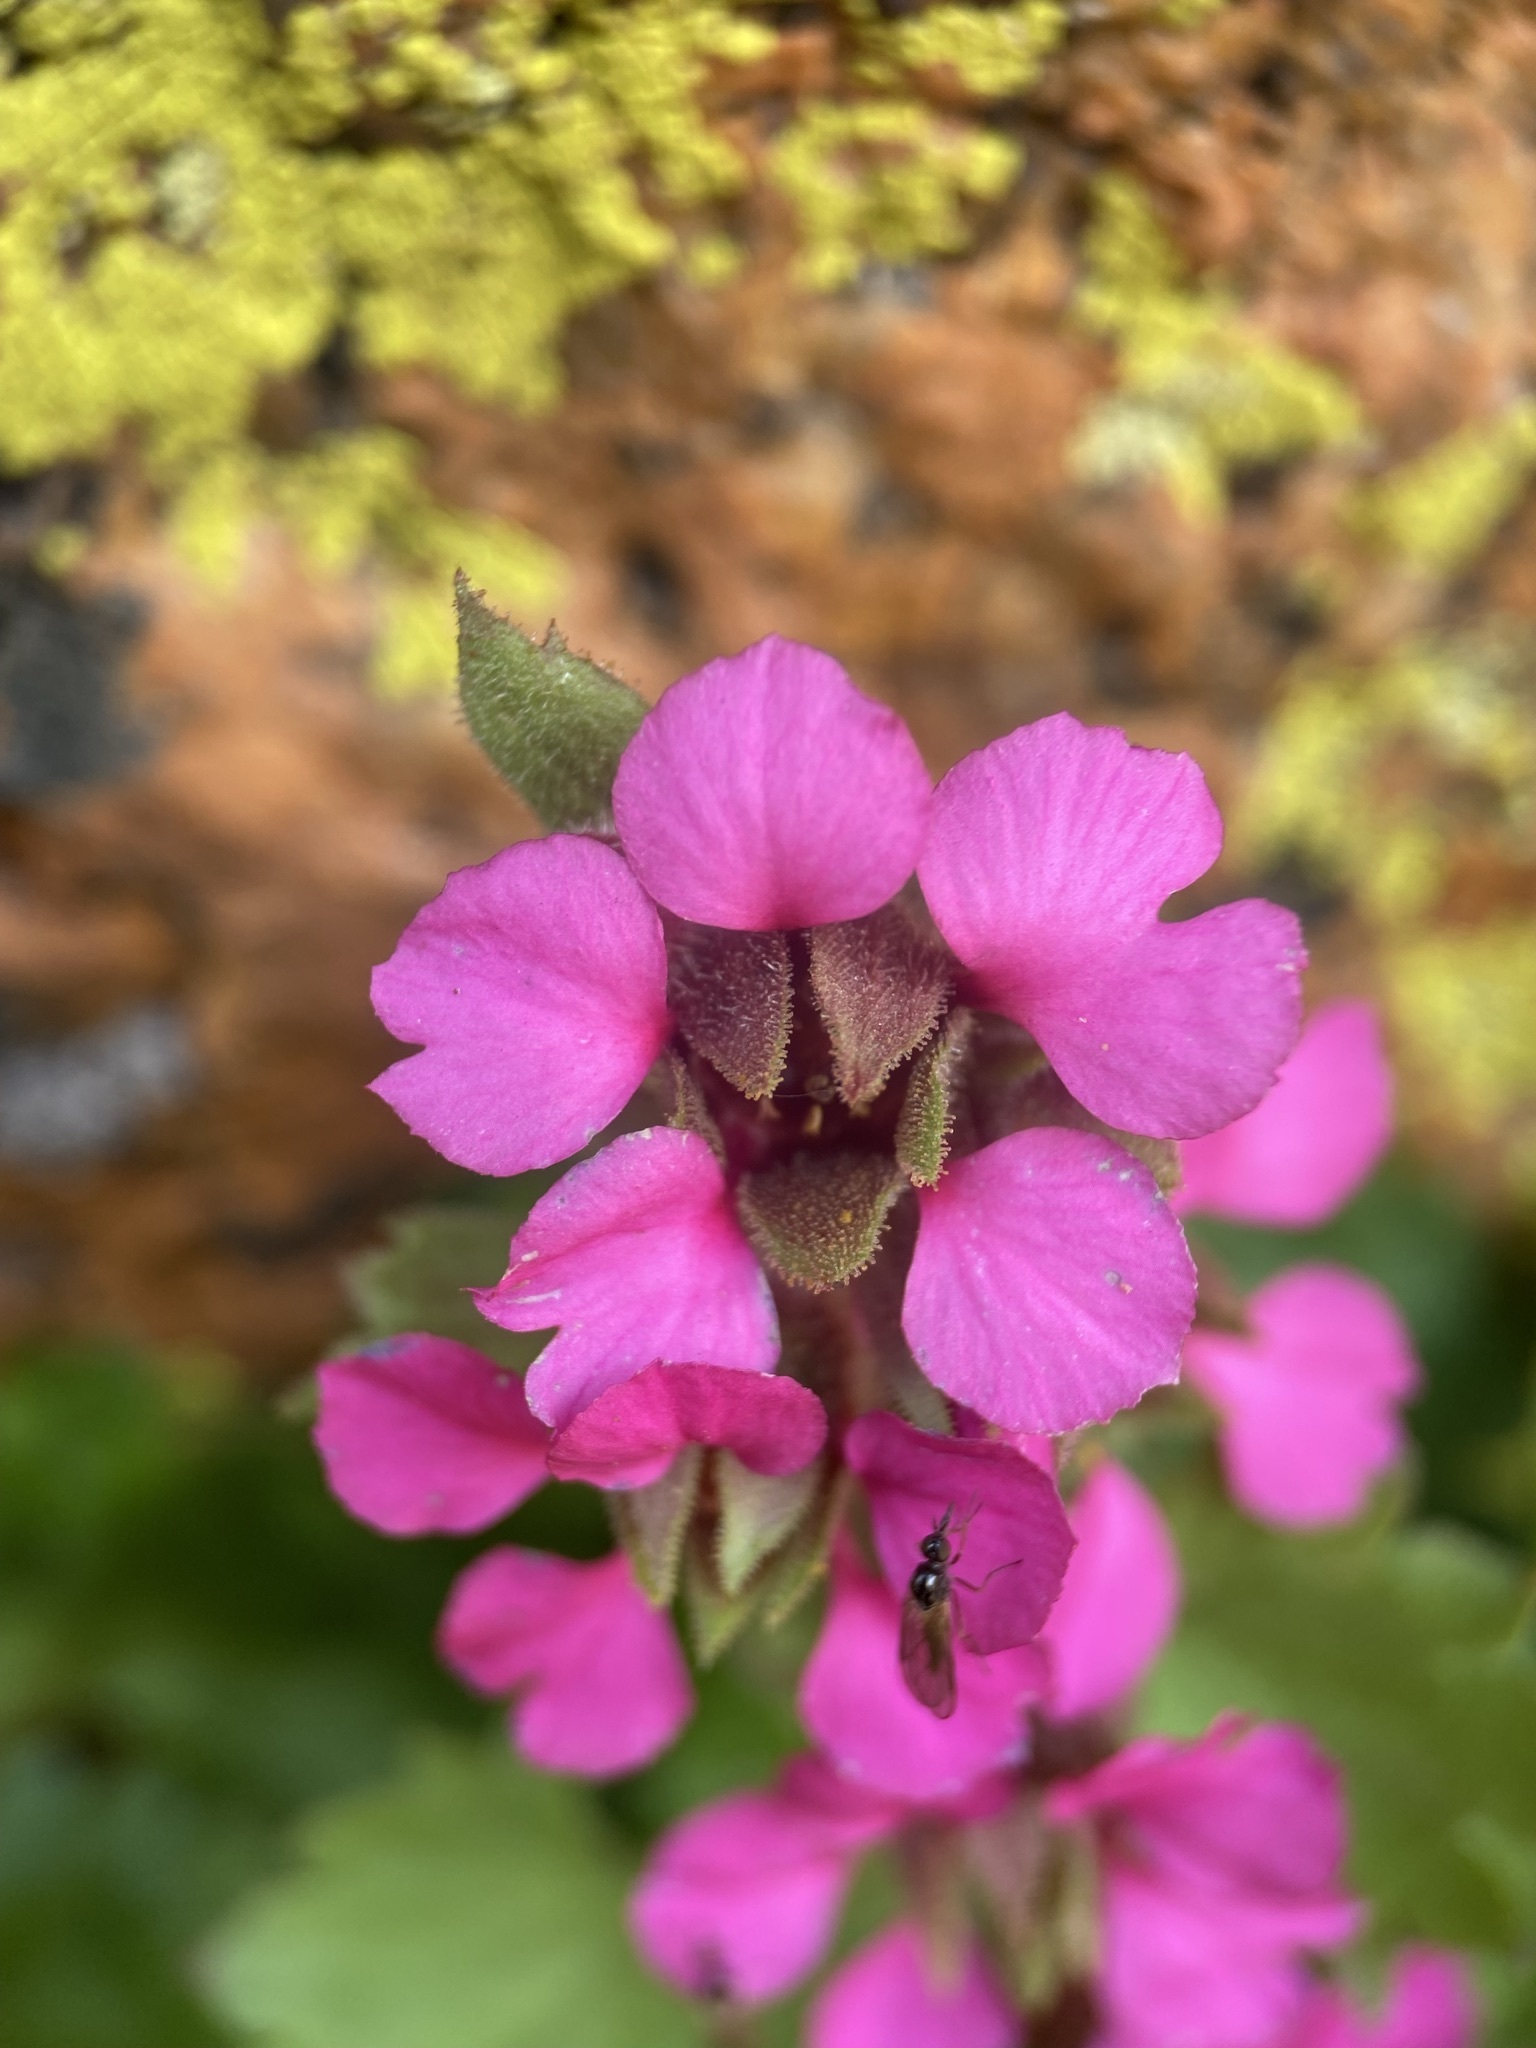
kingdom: Plantae
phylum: Tracheophyta
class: Magnoliopsida
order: Saxifragales
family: Saxifragaceae
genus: Telesonix
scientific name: Telesonix jamesii
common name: James's-saxifrage
